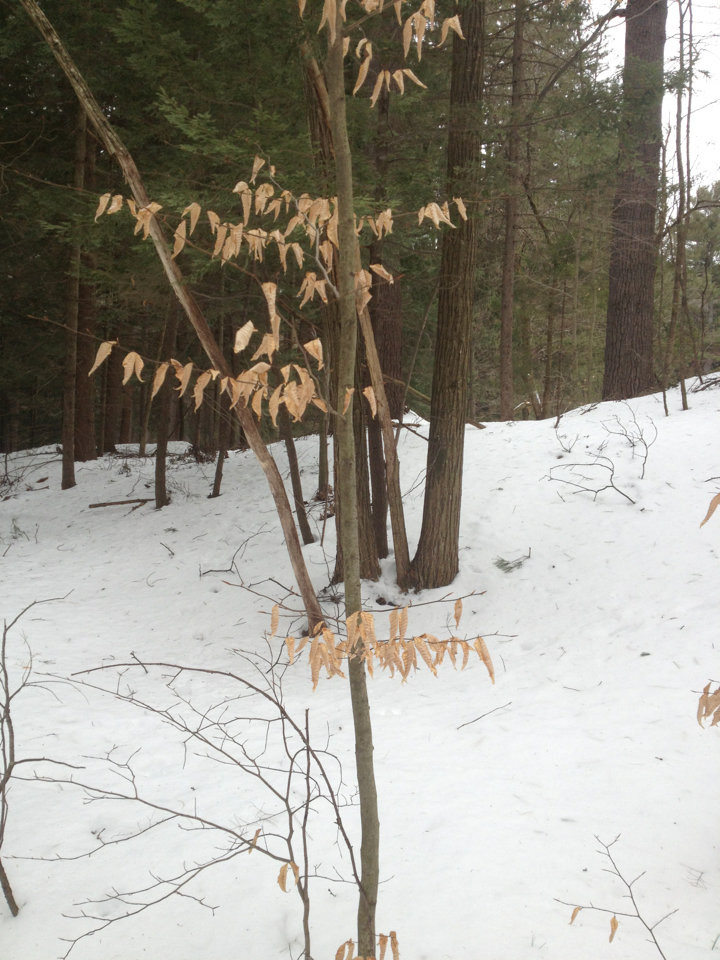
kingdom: Plantae
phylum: Tracheophyta
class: Magnoliopsida
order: Fagales
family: Fagaceae
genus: Fagus
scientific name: Fagus grandifolia
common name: American beech
